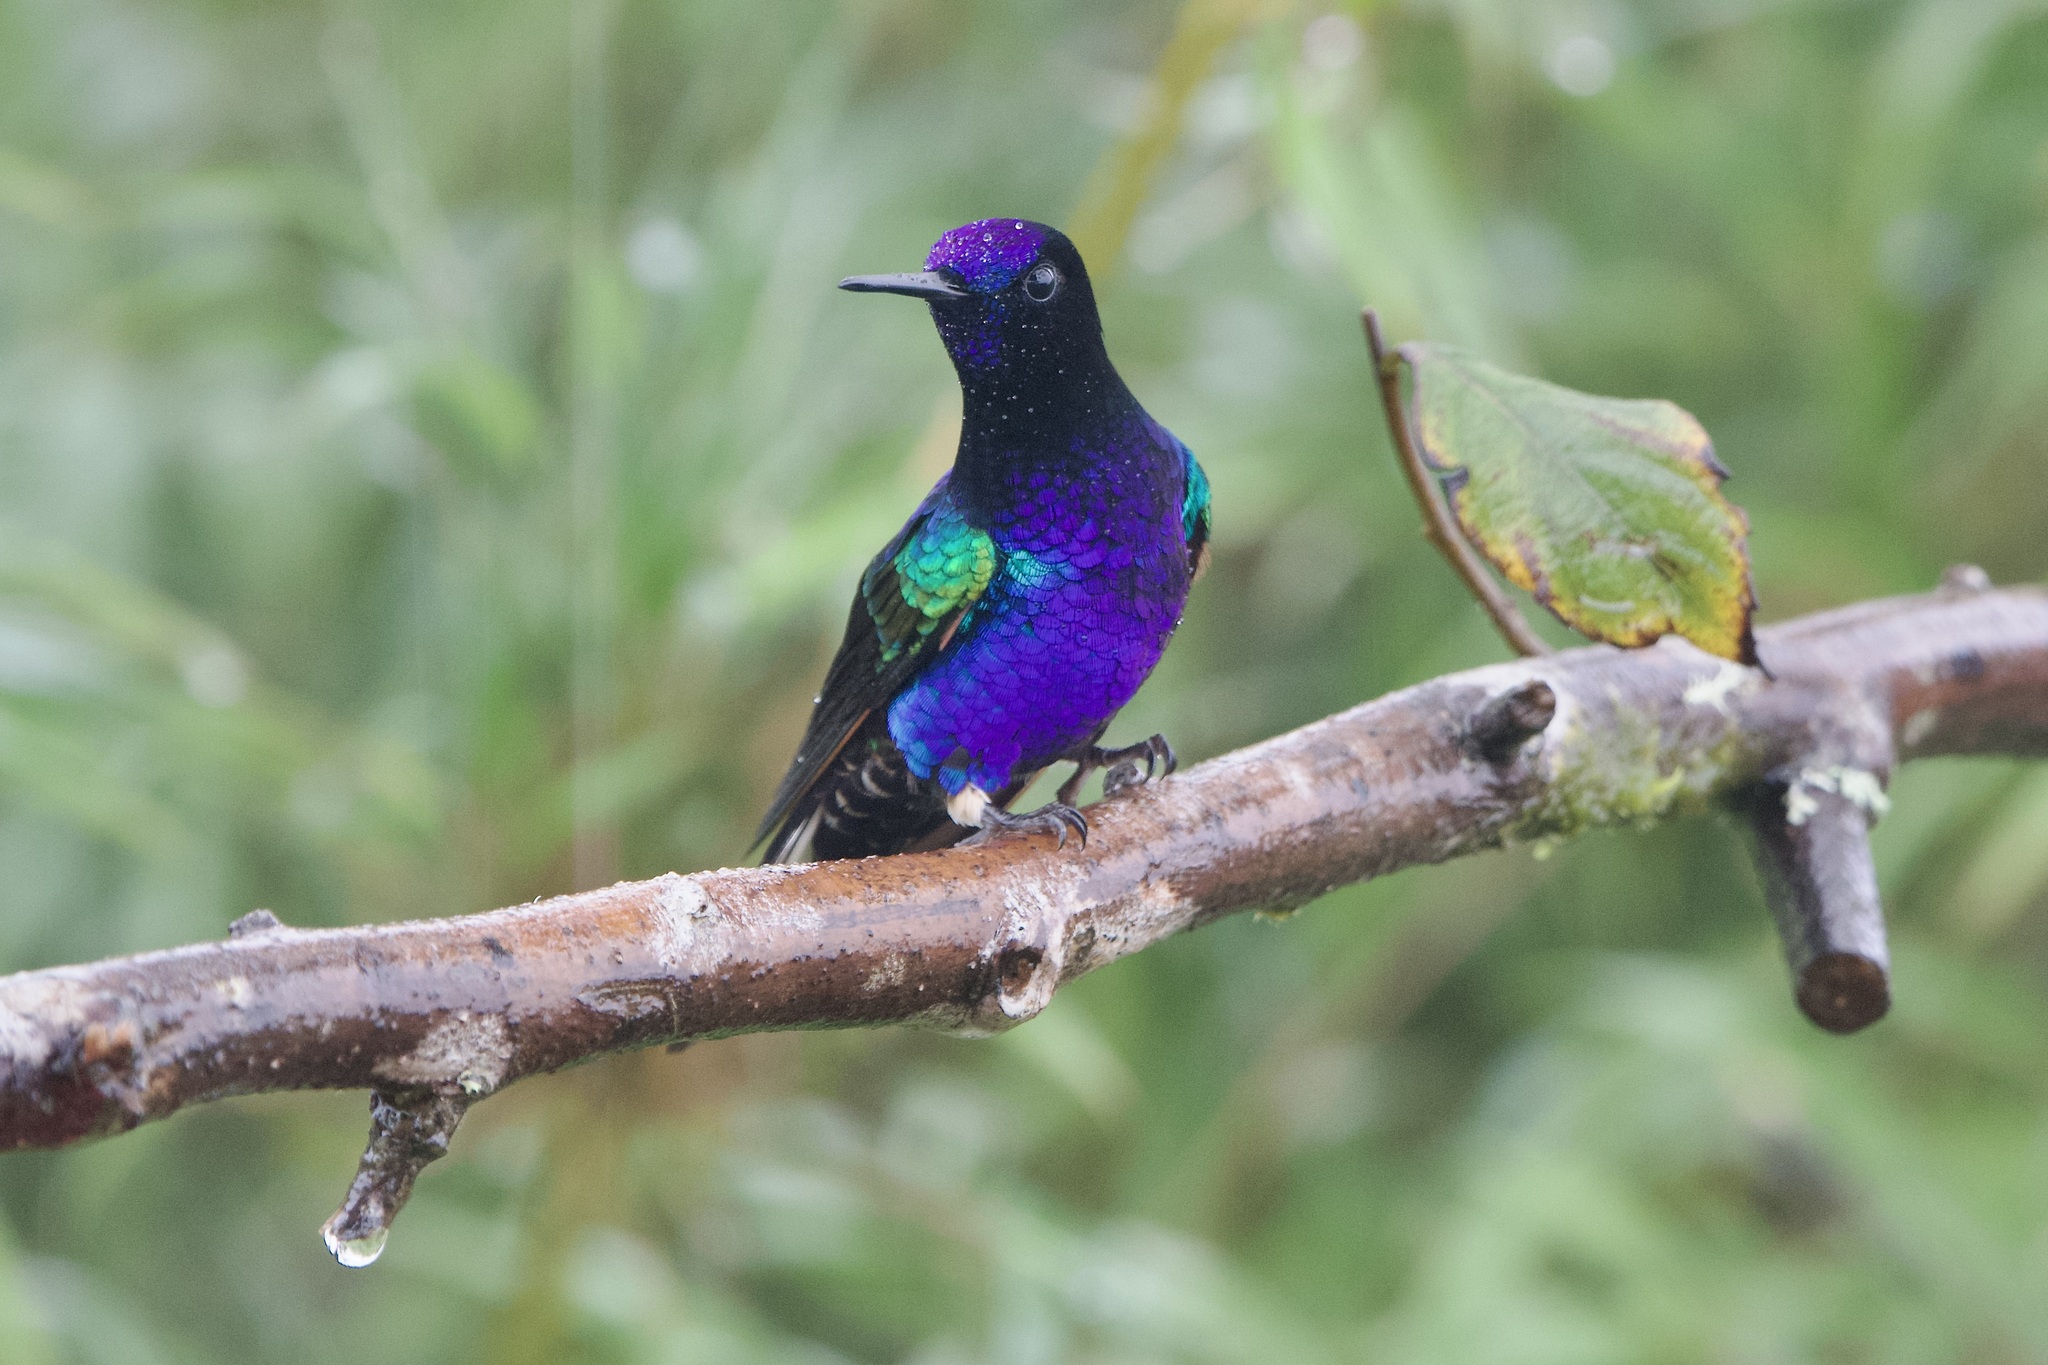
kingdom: Animalia
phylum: Chordata
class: Aves
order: Apodiformes
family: Trochilidae
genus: Boissonneaua
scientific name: Boissonneaua jardini
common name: Velvet-purple coronet
